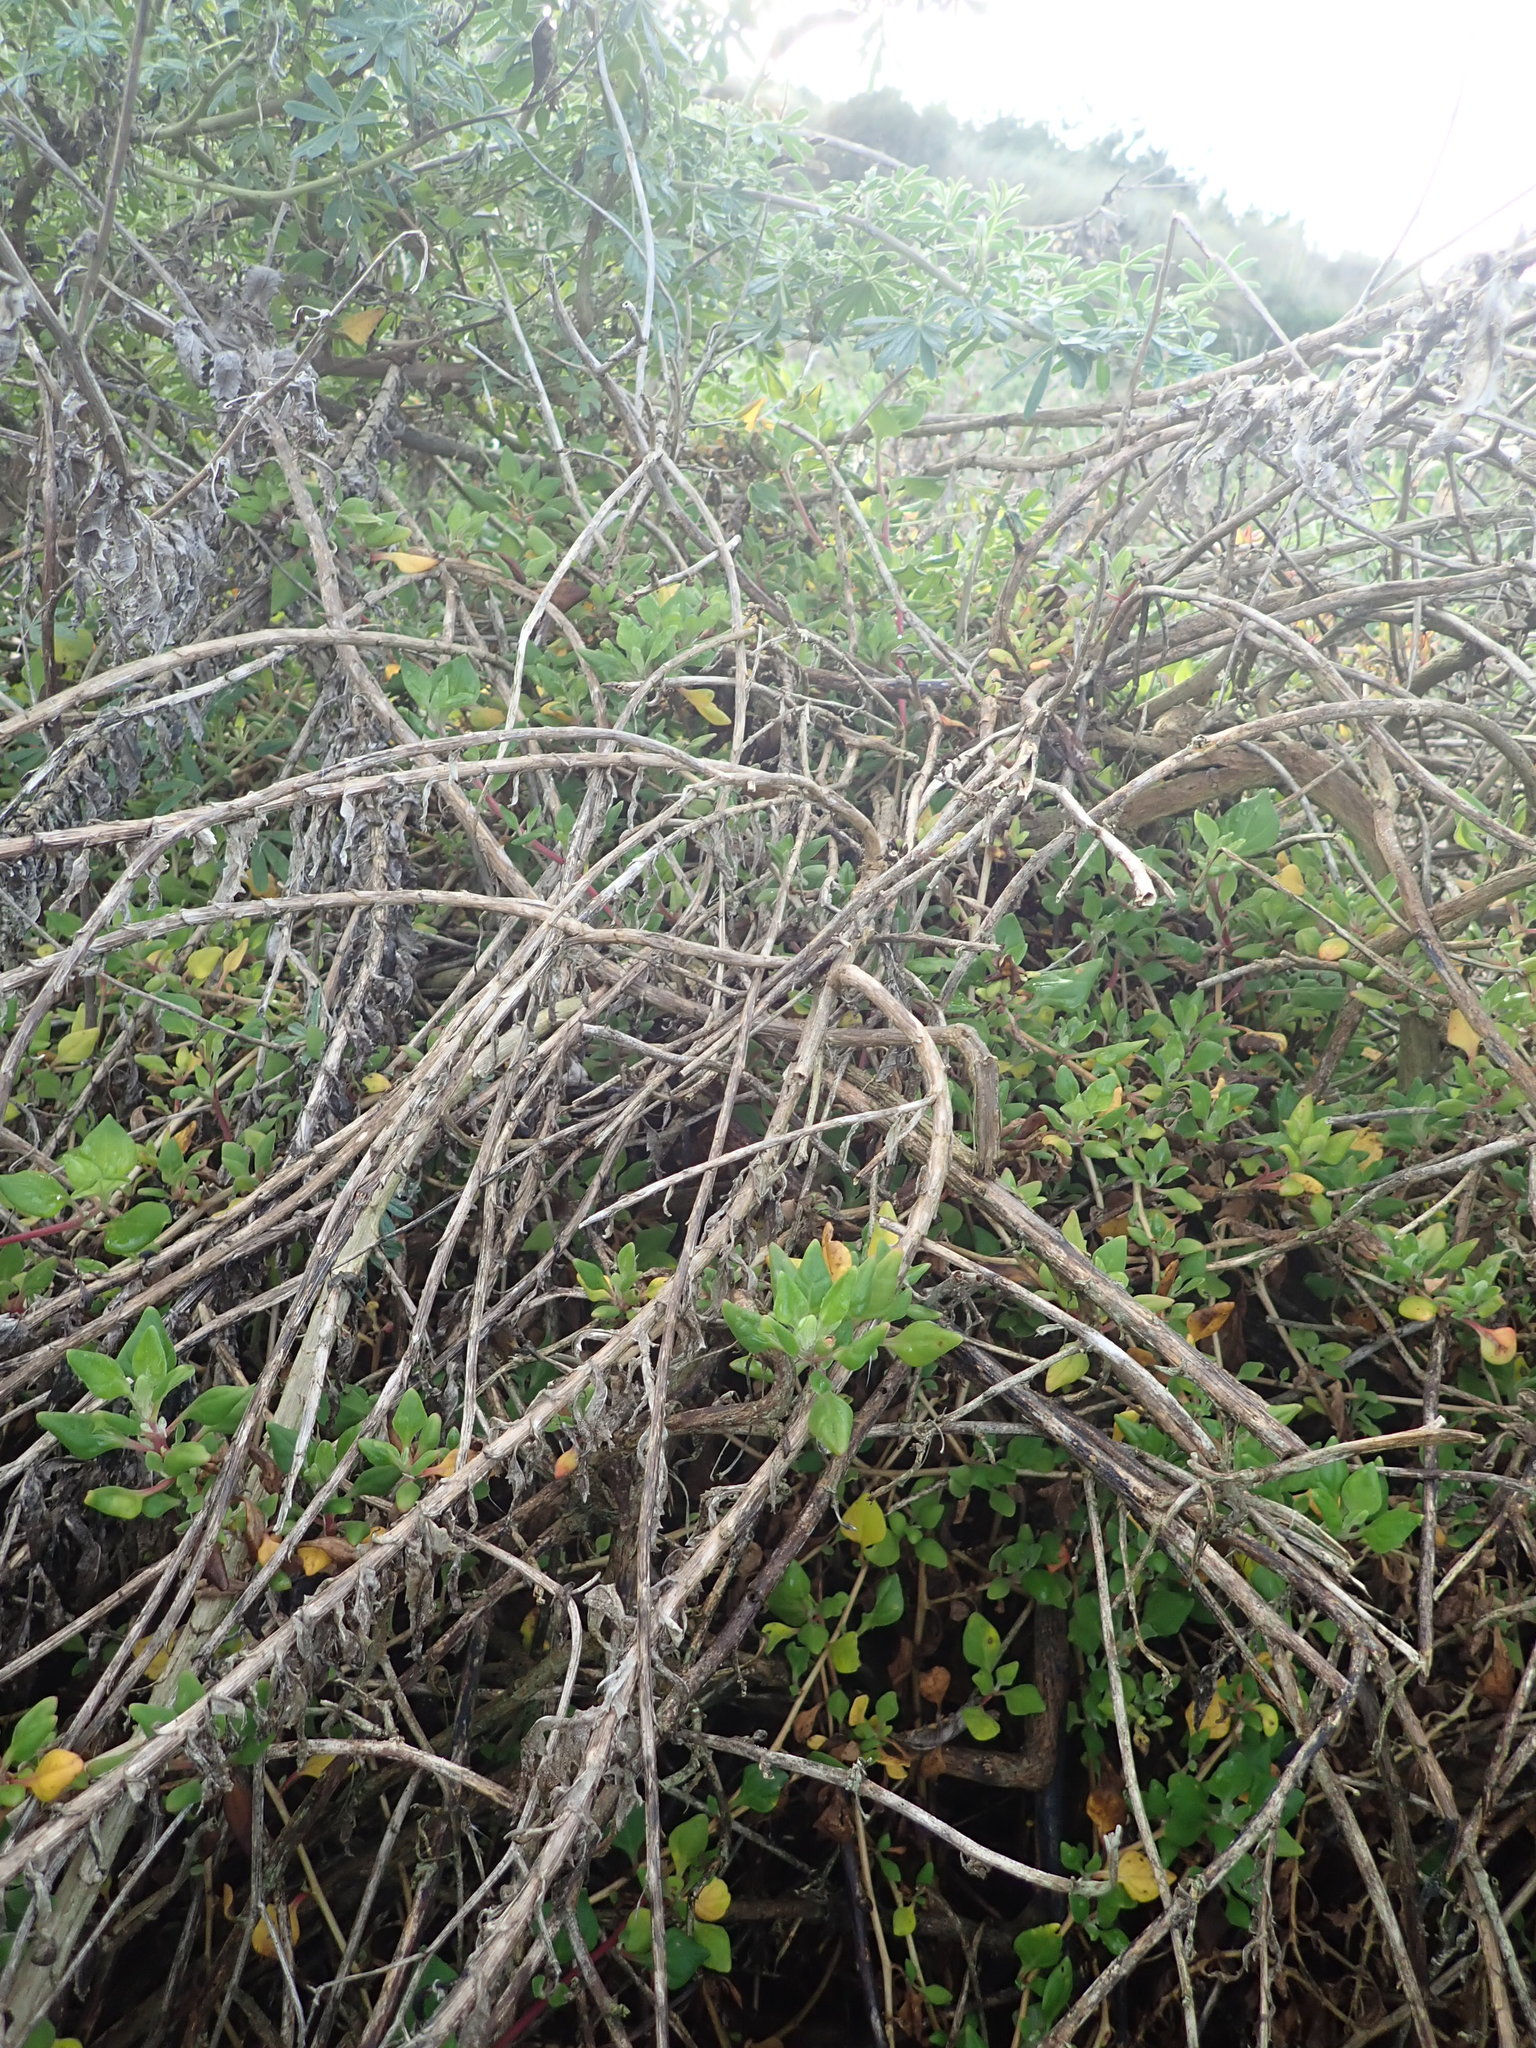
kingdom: Plantae
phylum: Tracheophyta
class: Magnoliopsida
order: Caryophyllales
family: Aizoaceae
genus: Tetragonia
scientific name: Tetragonia implexicoma
